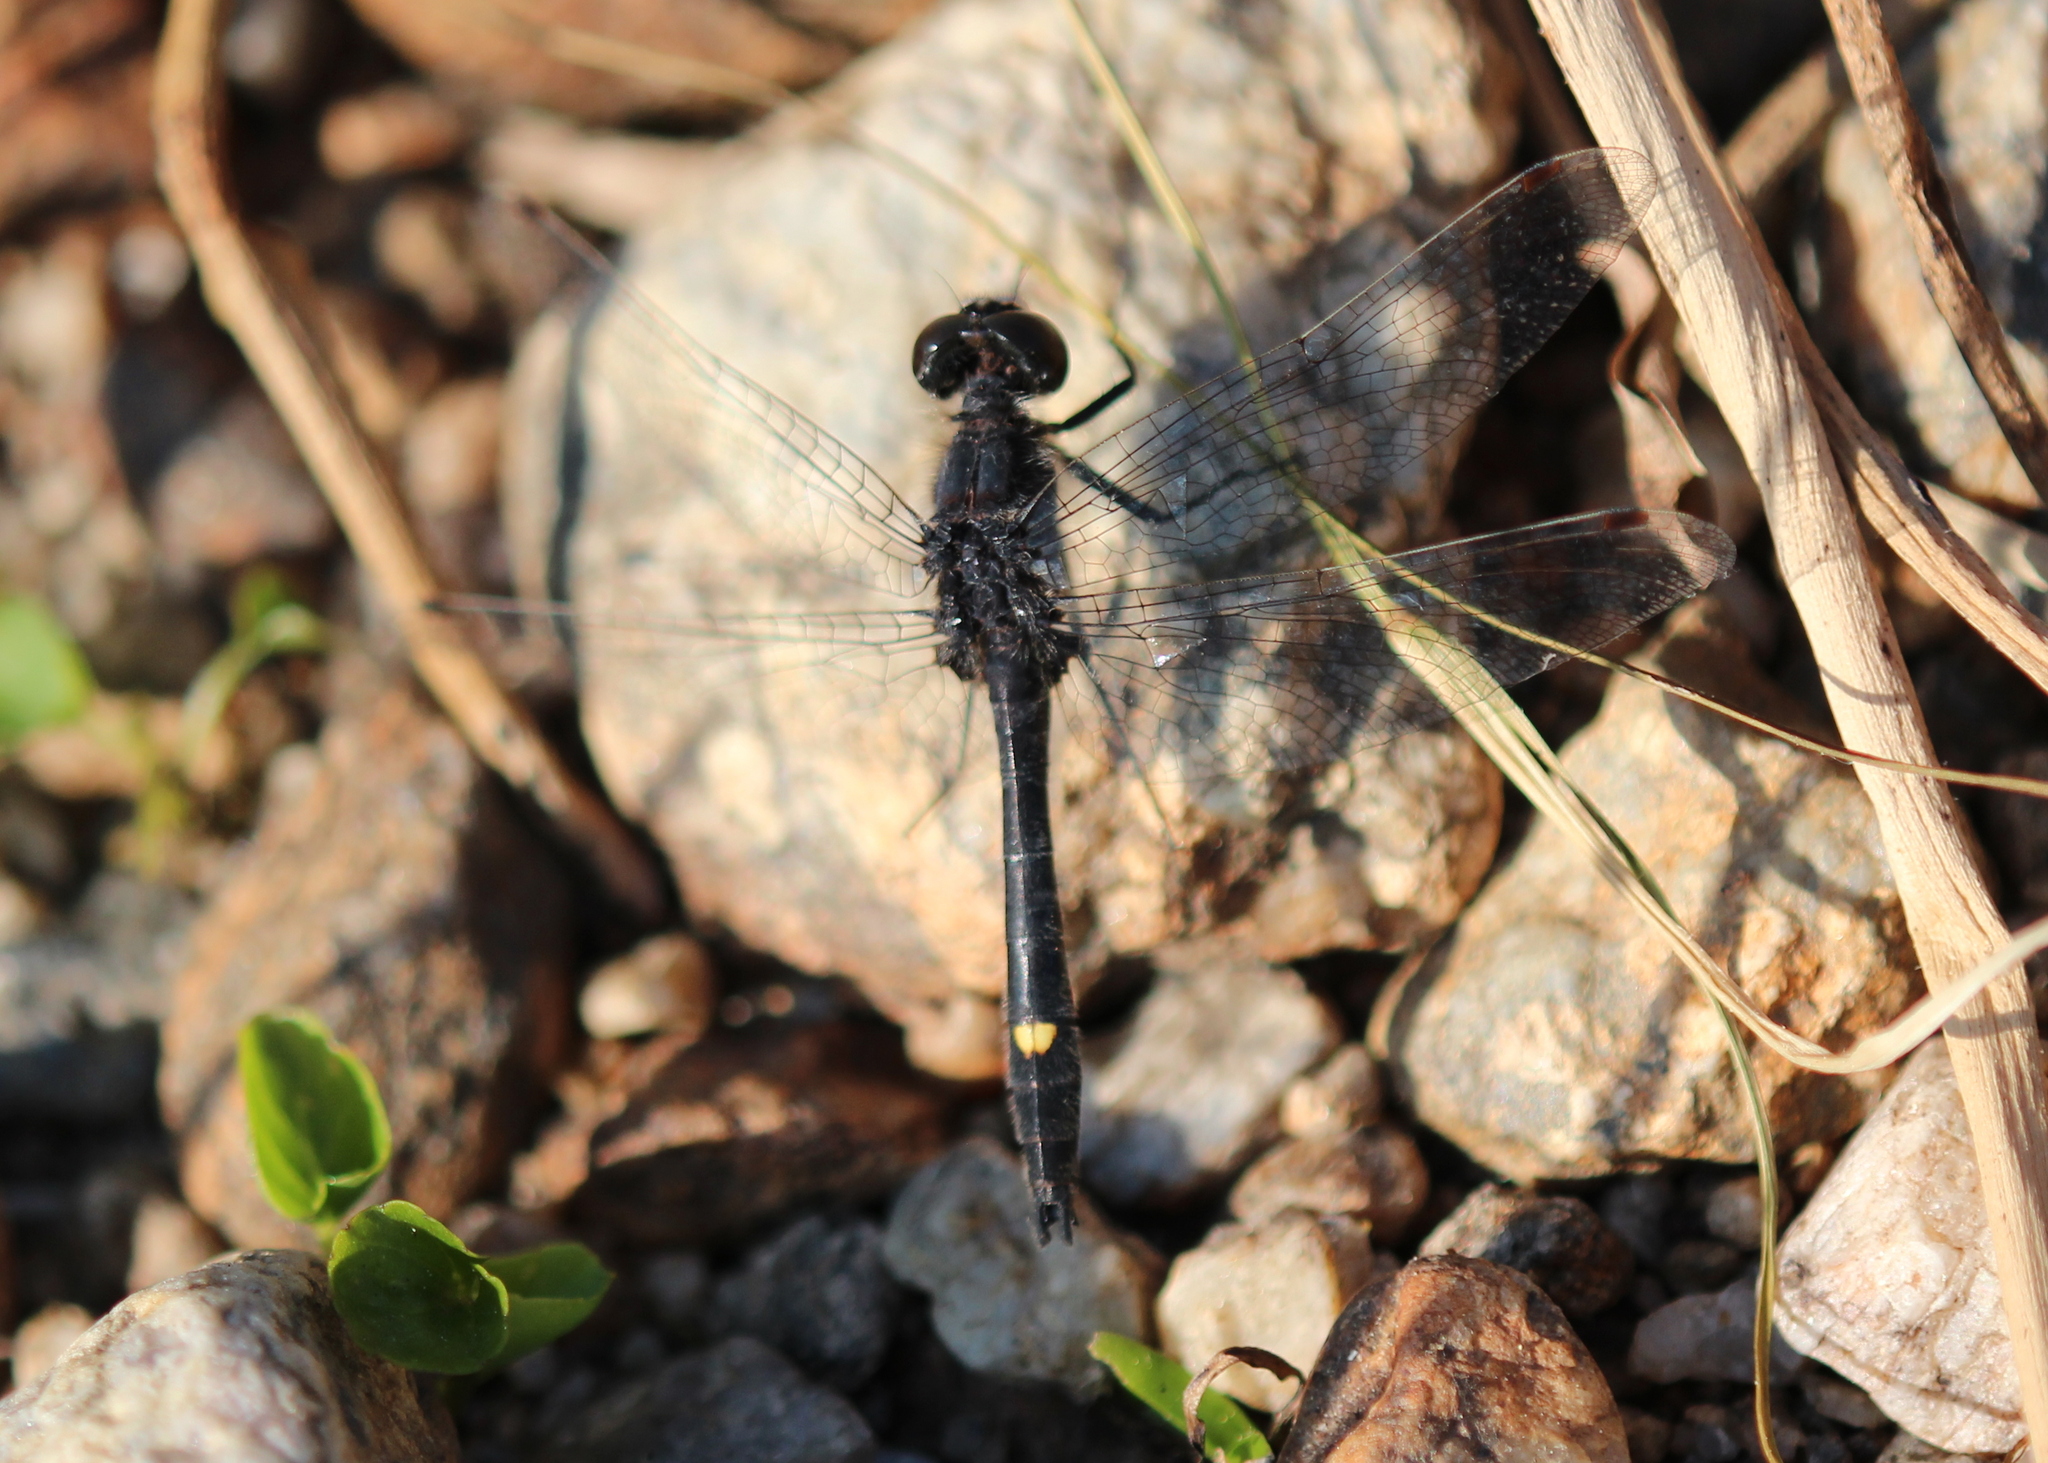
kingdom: Animalia
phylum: Arthropoda
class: Insecta
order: Odonata
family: Libellulidae
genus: Leucorrhinia
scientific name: Leucorrhinia intacta
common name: Dot-tailed whiteface
